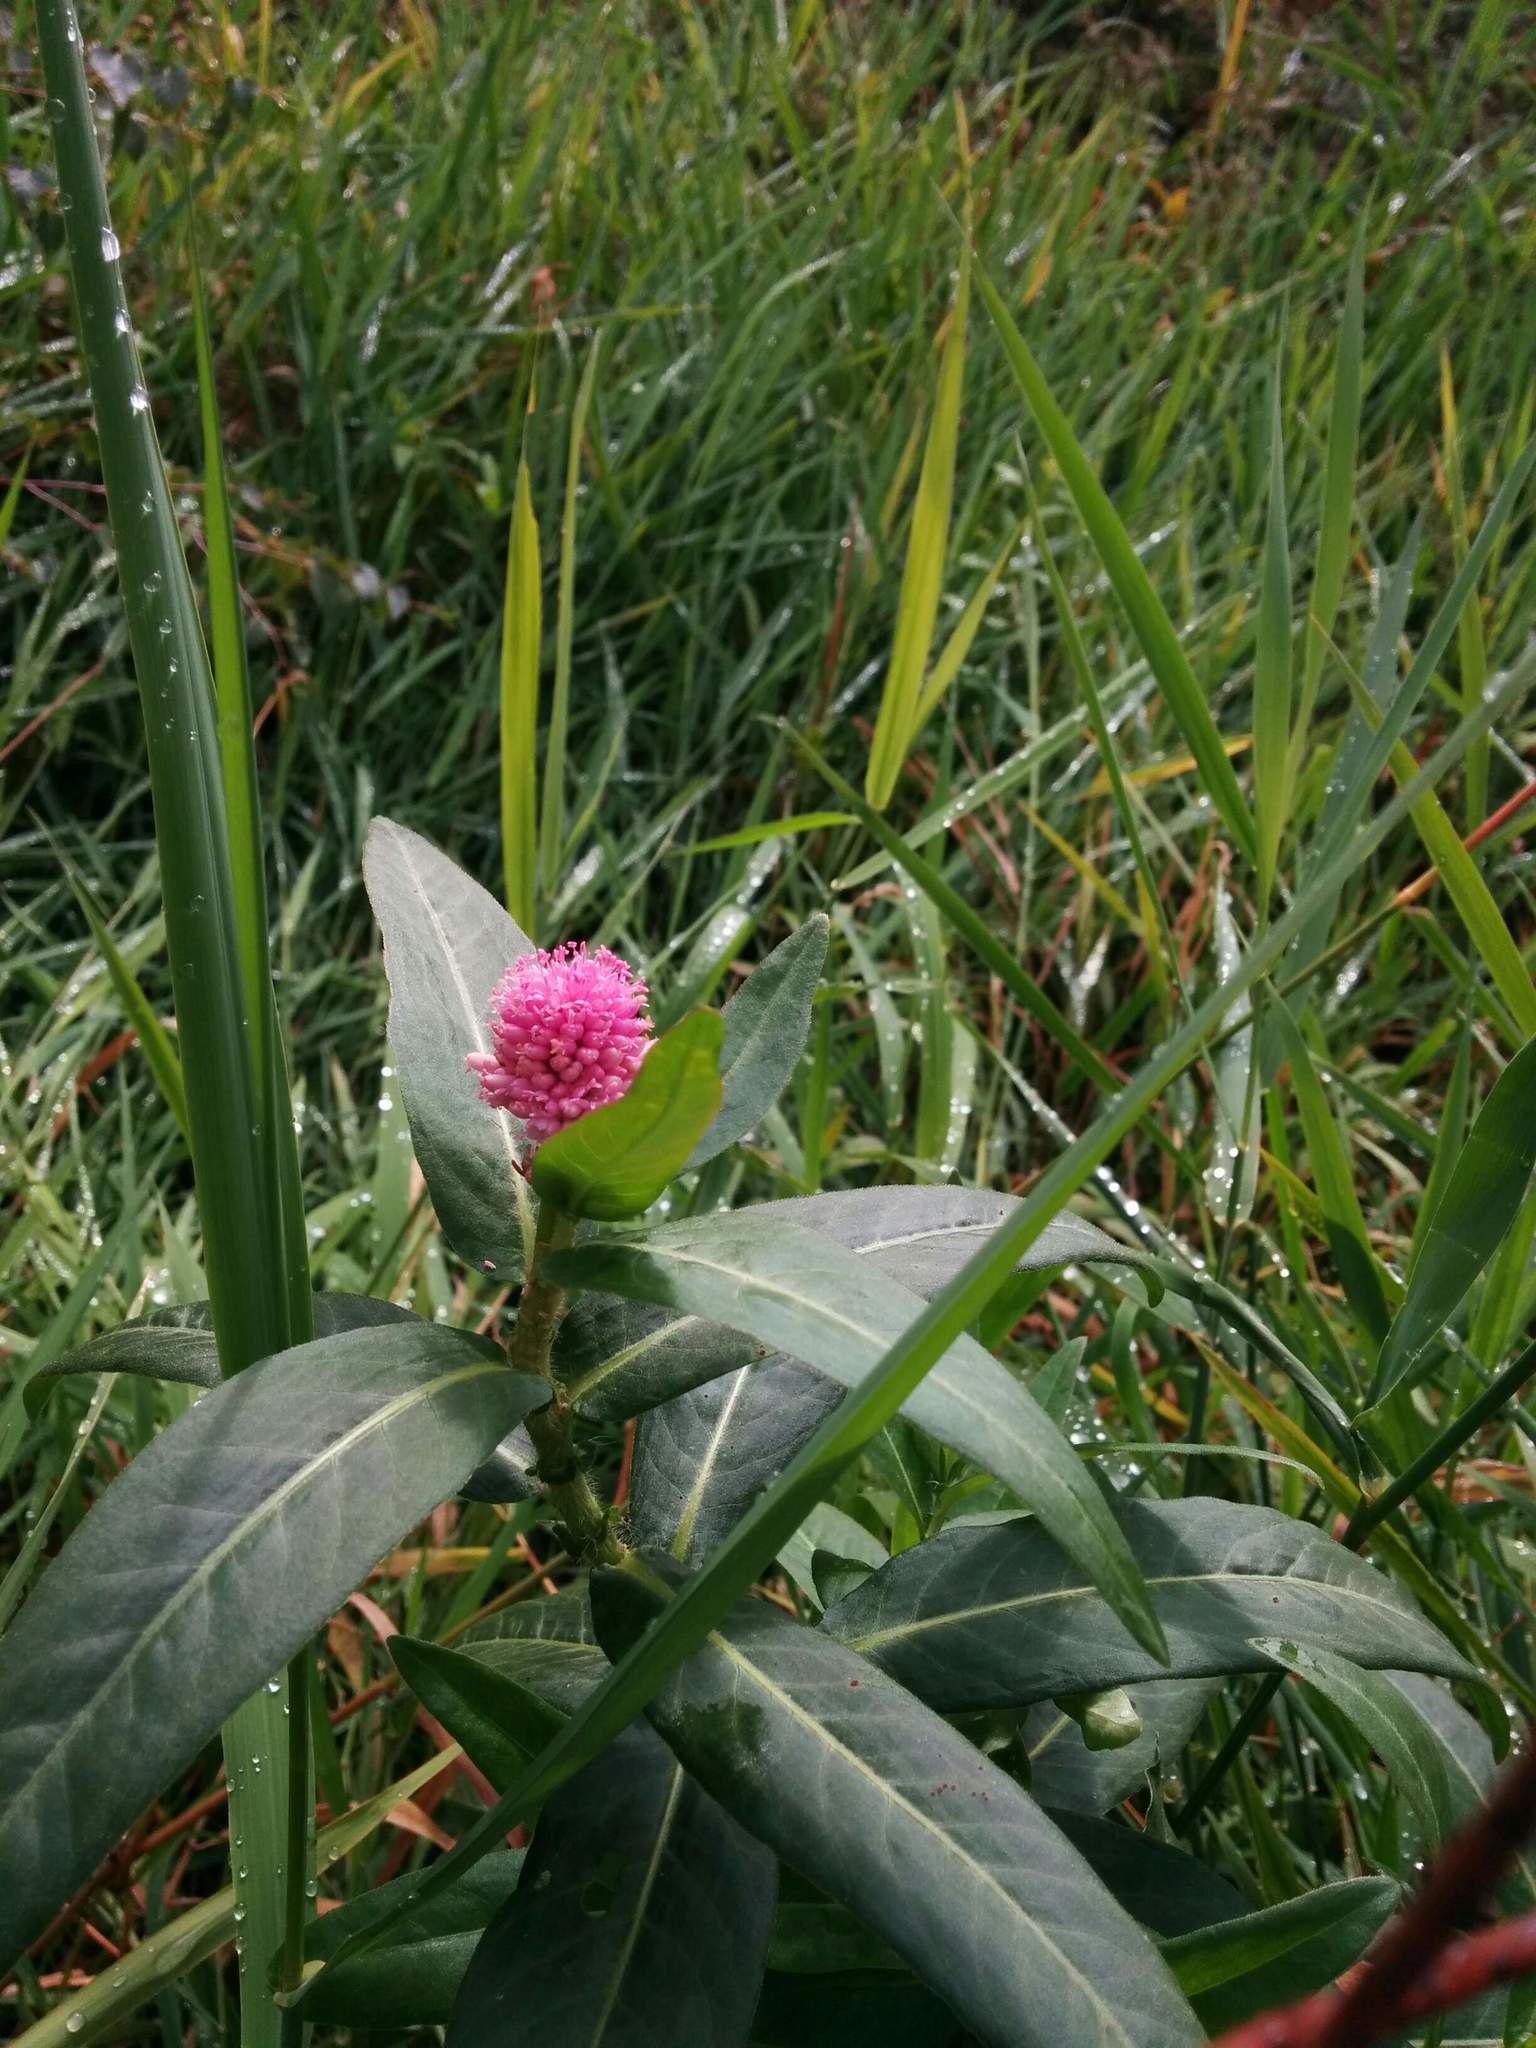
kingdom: Plantae
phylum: Tracheophyta
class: Magnoliopsida
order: Caryophyllales
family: Polygonaceae
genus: Persicaria
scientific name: Persicaria amphibia
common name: Amphibious bistort
